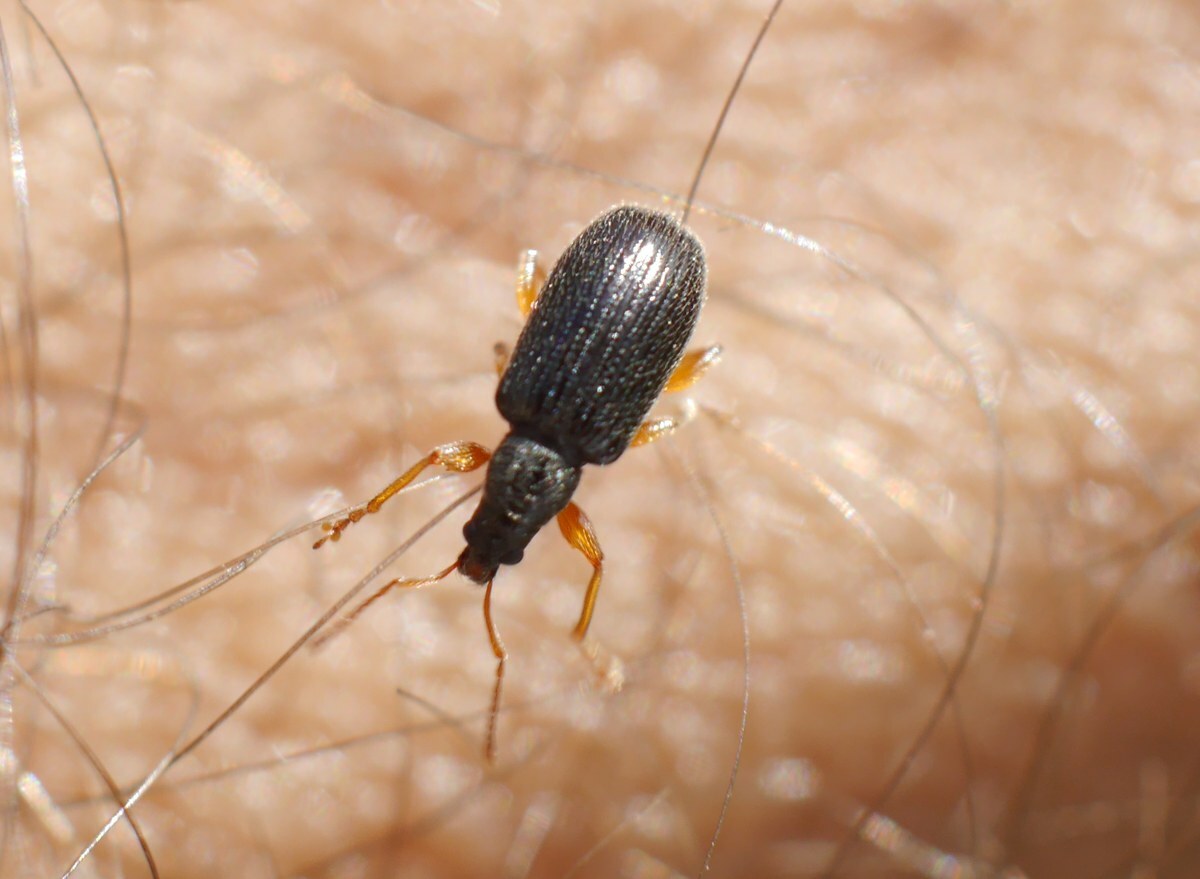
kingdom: Animalia
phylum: Arthropoda
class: Insecta
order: Coleoptera
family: Curculionidae
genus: Phyllobius
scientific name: Phyllobius oblongus
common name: Brown leaf weevil
